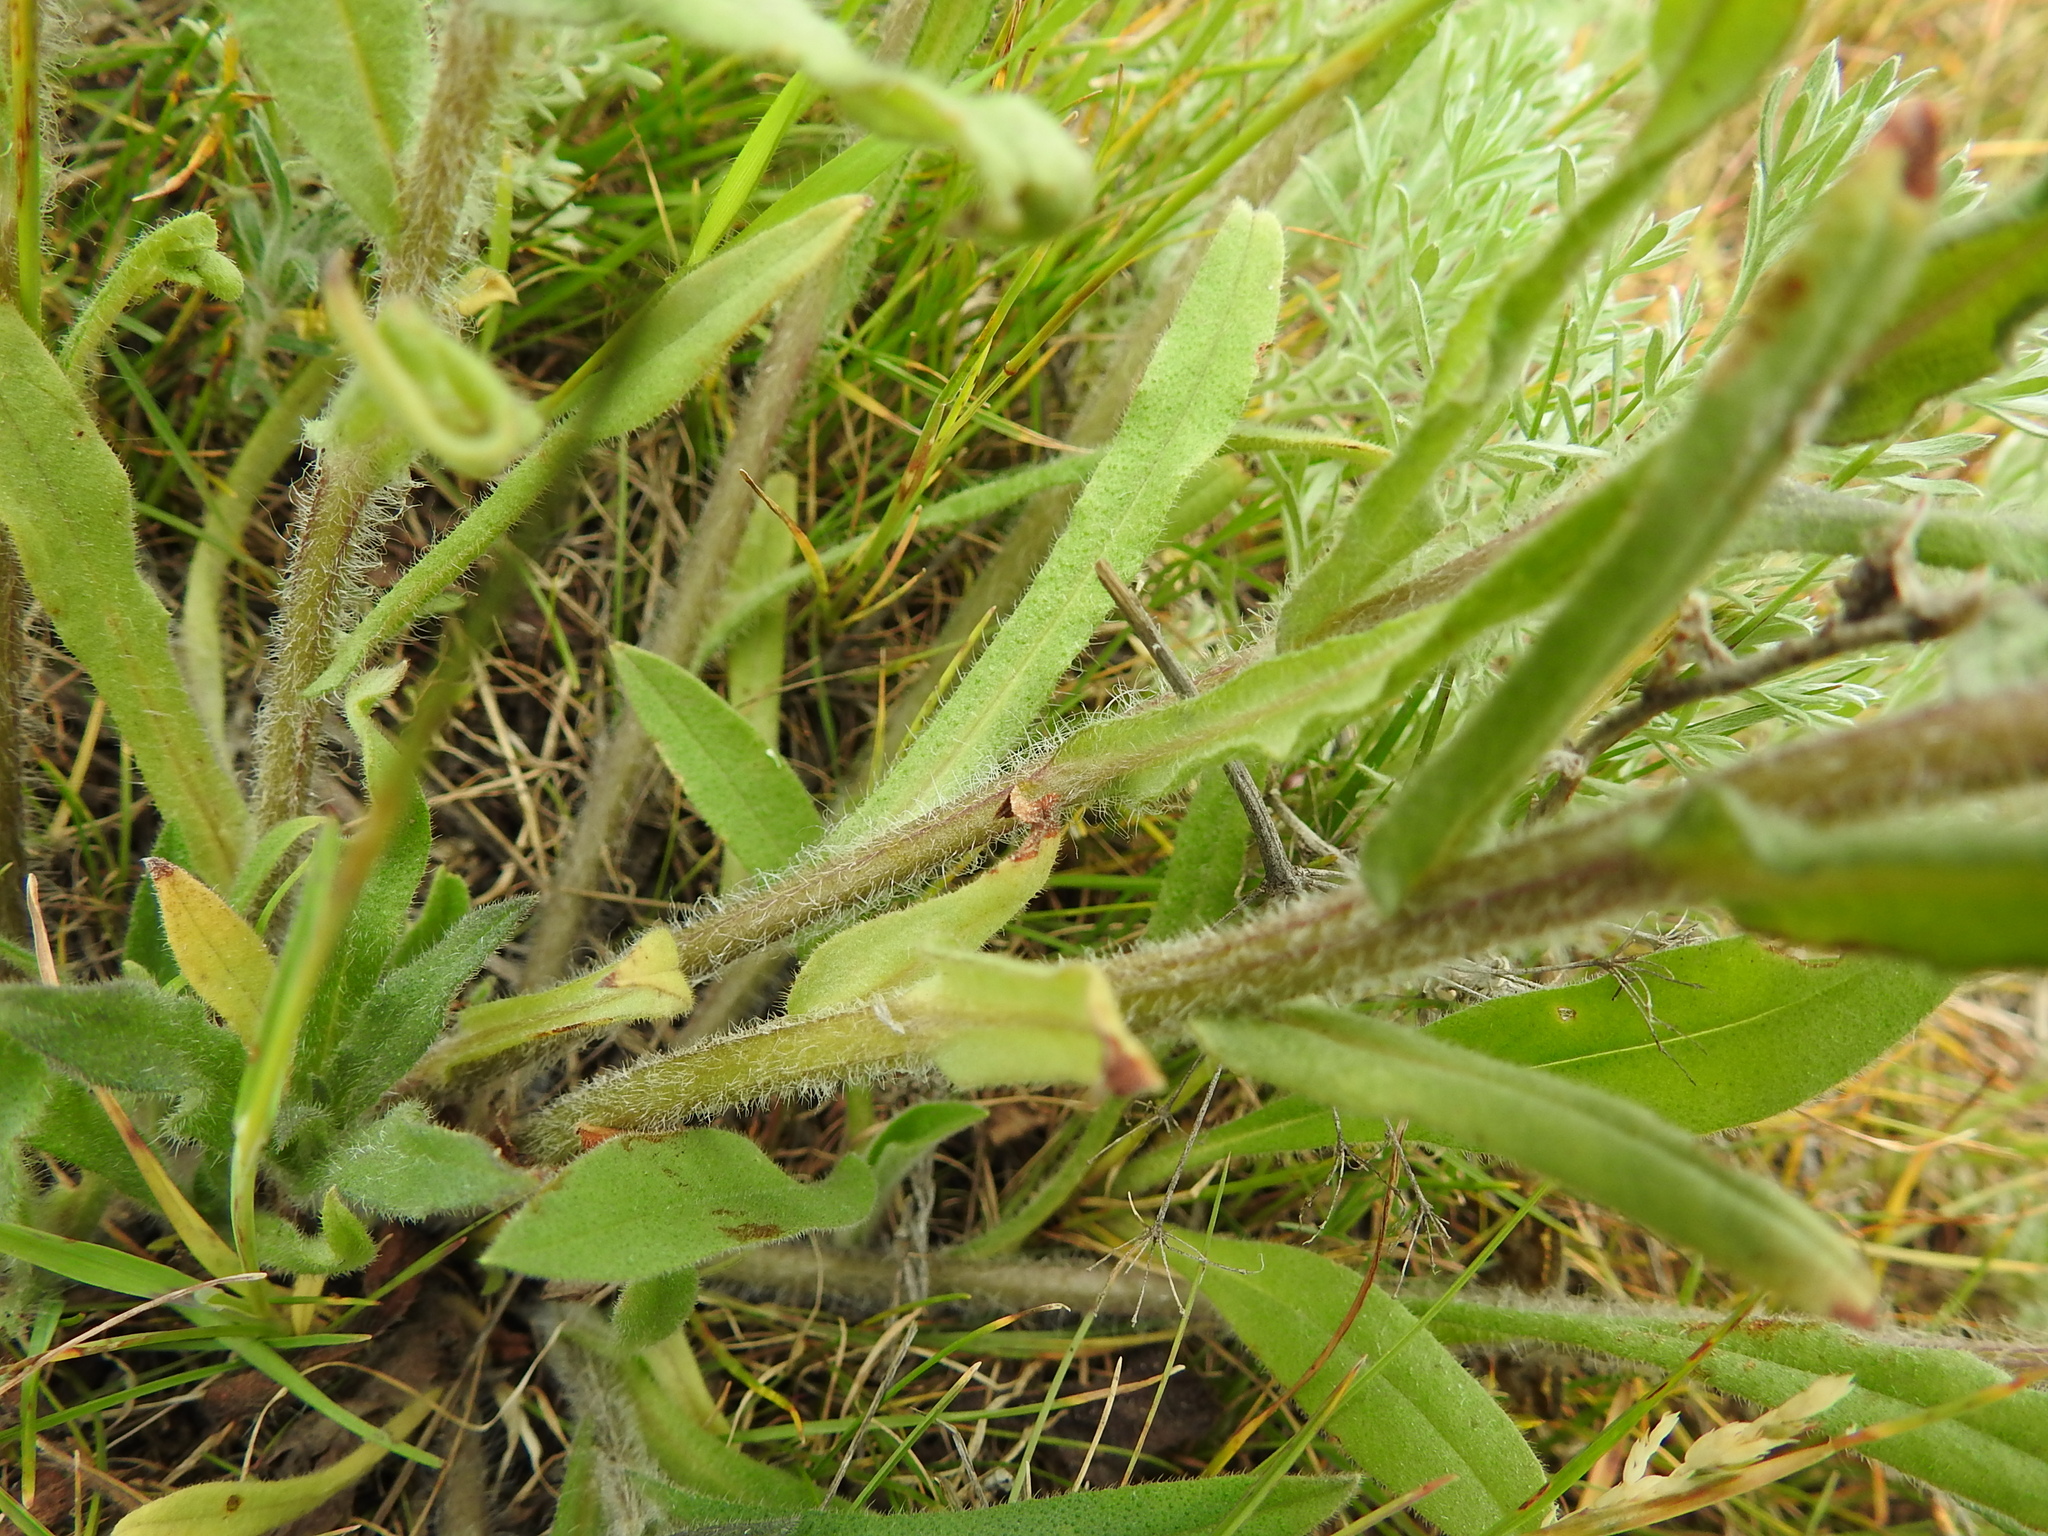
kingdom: Plantae
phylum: Tracheophyta
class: Magnoliopsida
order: Boraginales
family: Boraginaceae
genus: Nonea
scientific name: Nonea pulla
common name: Brown nonea
